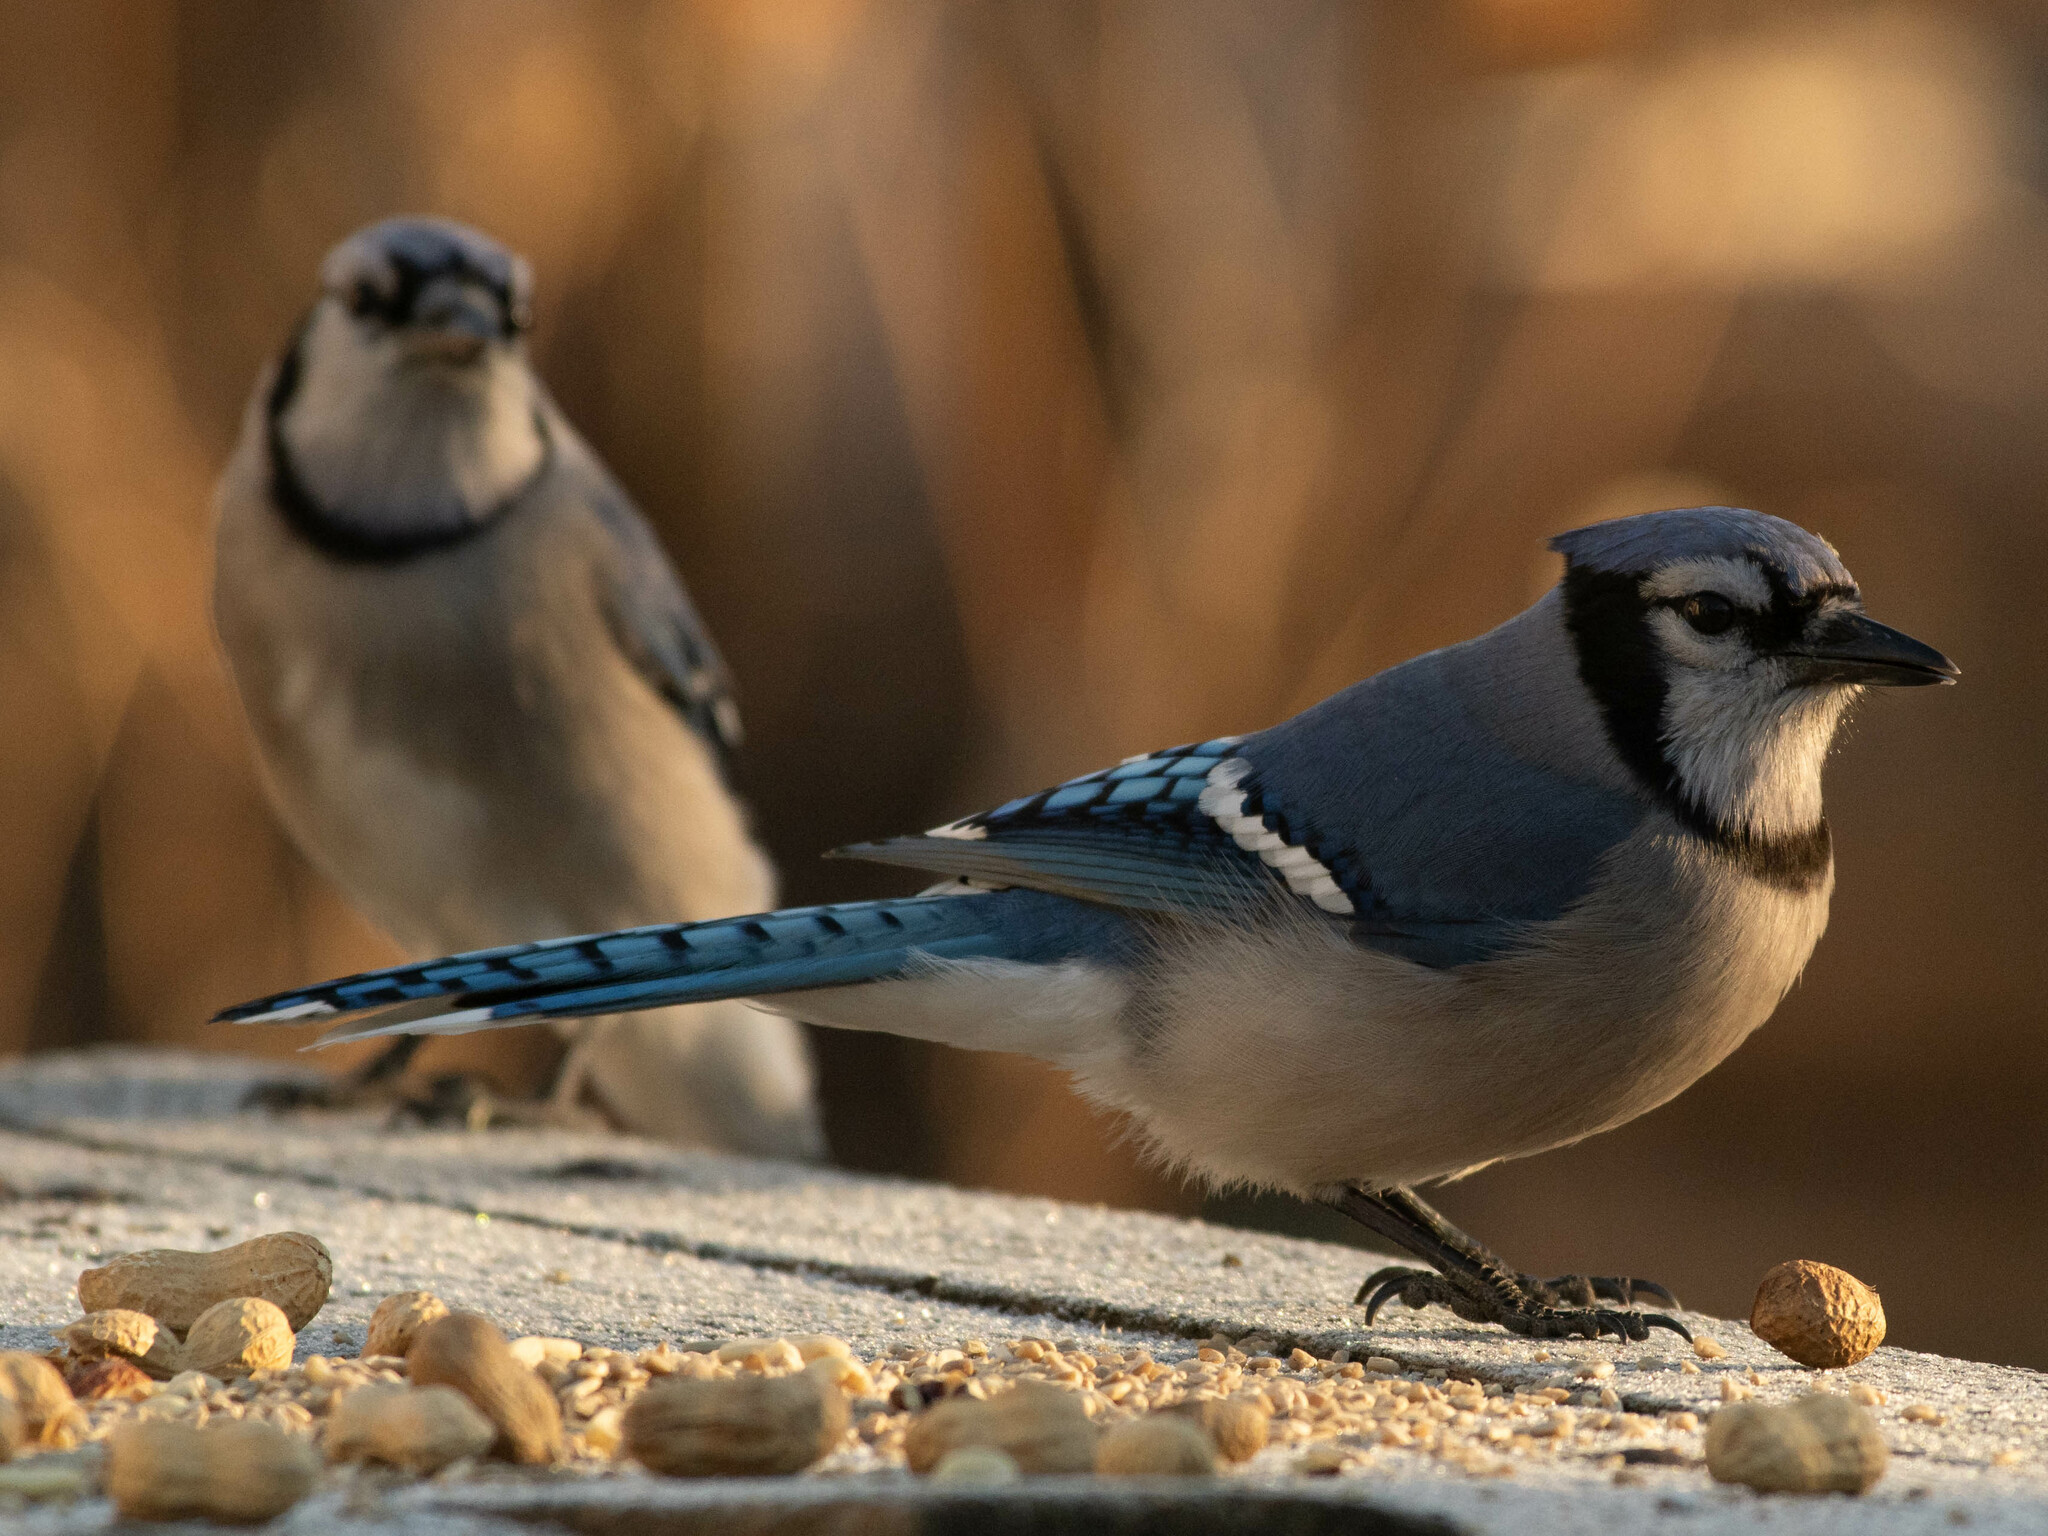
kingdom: Animalia
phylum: Chordata
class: Aves
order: Passeriformes
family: Corvidae
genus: Cyanocitta
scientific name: Cyanocitta cristata
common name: Blue jay
